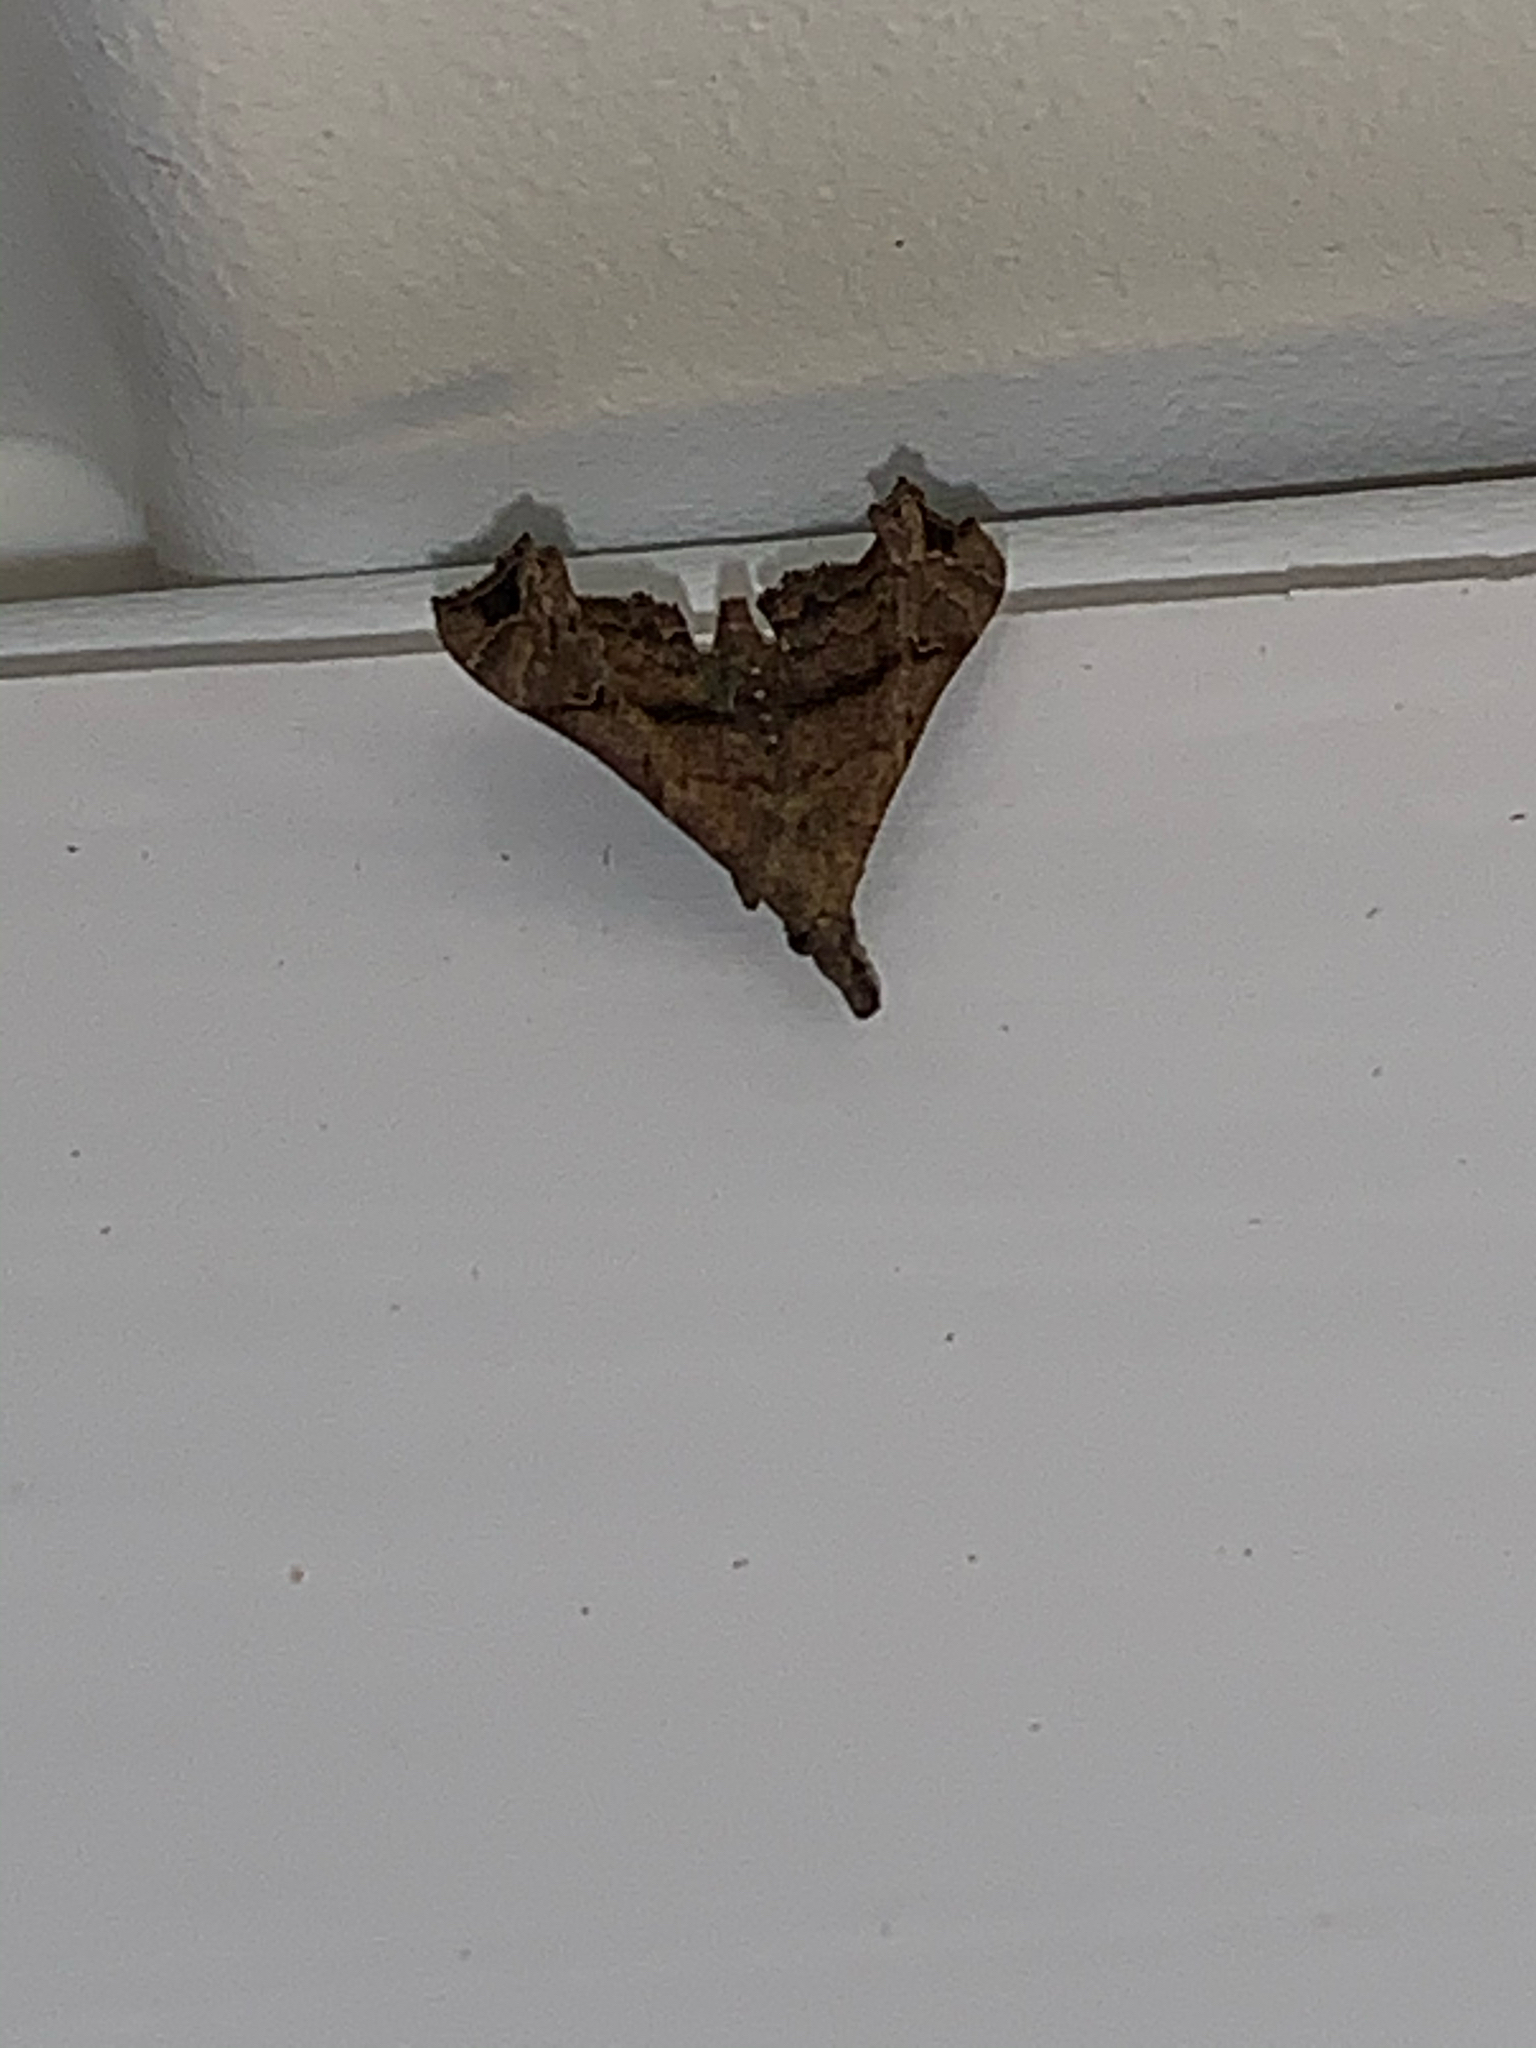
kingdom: Animalia
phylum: Arthropoda
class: Insecta
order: Lepidoptera
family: Erebidae
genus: Palthis
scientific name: Palthis asopialis
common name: Faint-spotted palthis moth
